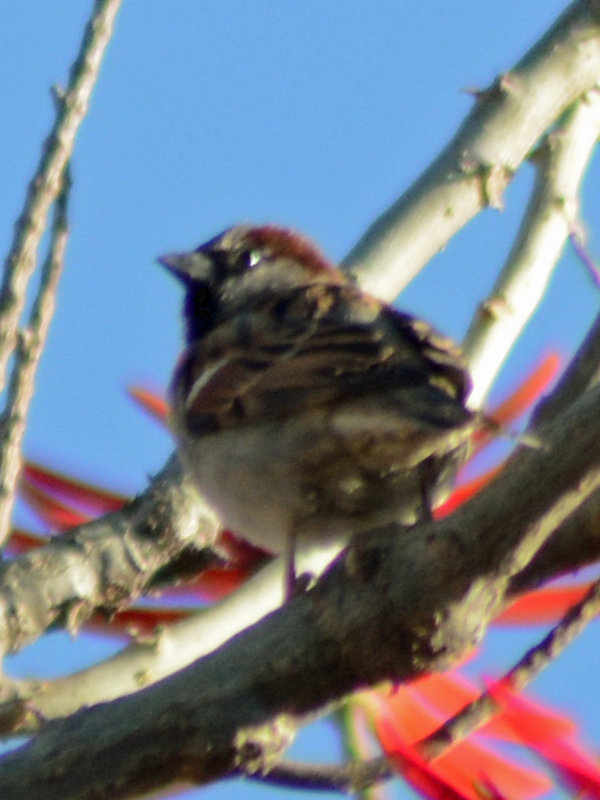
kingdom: Animalia
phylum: Chordata
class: Aves
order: Passeriformes
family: Passeridae
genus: Passer
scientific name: Passer domesticus
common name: House sparrow
